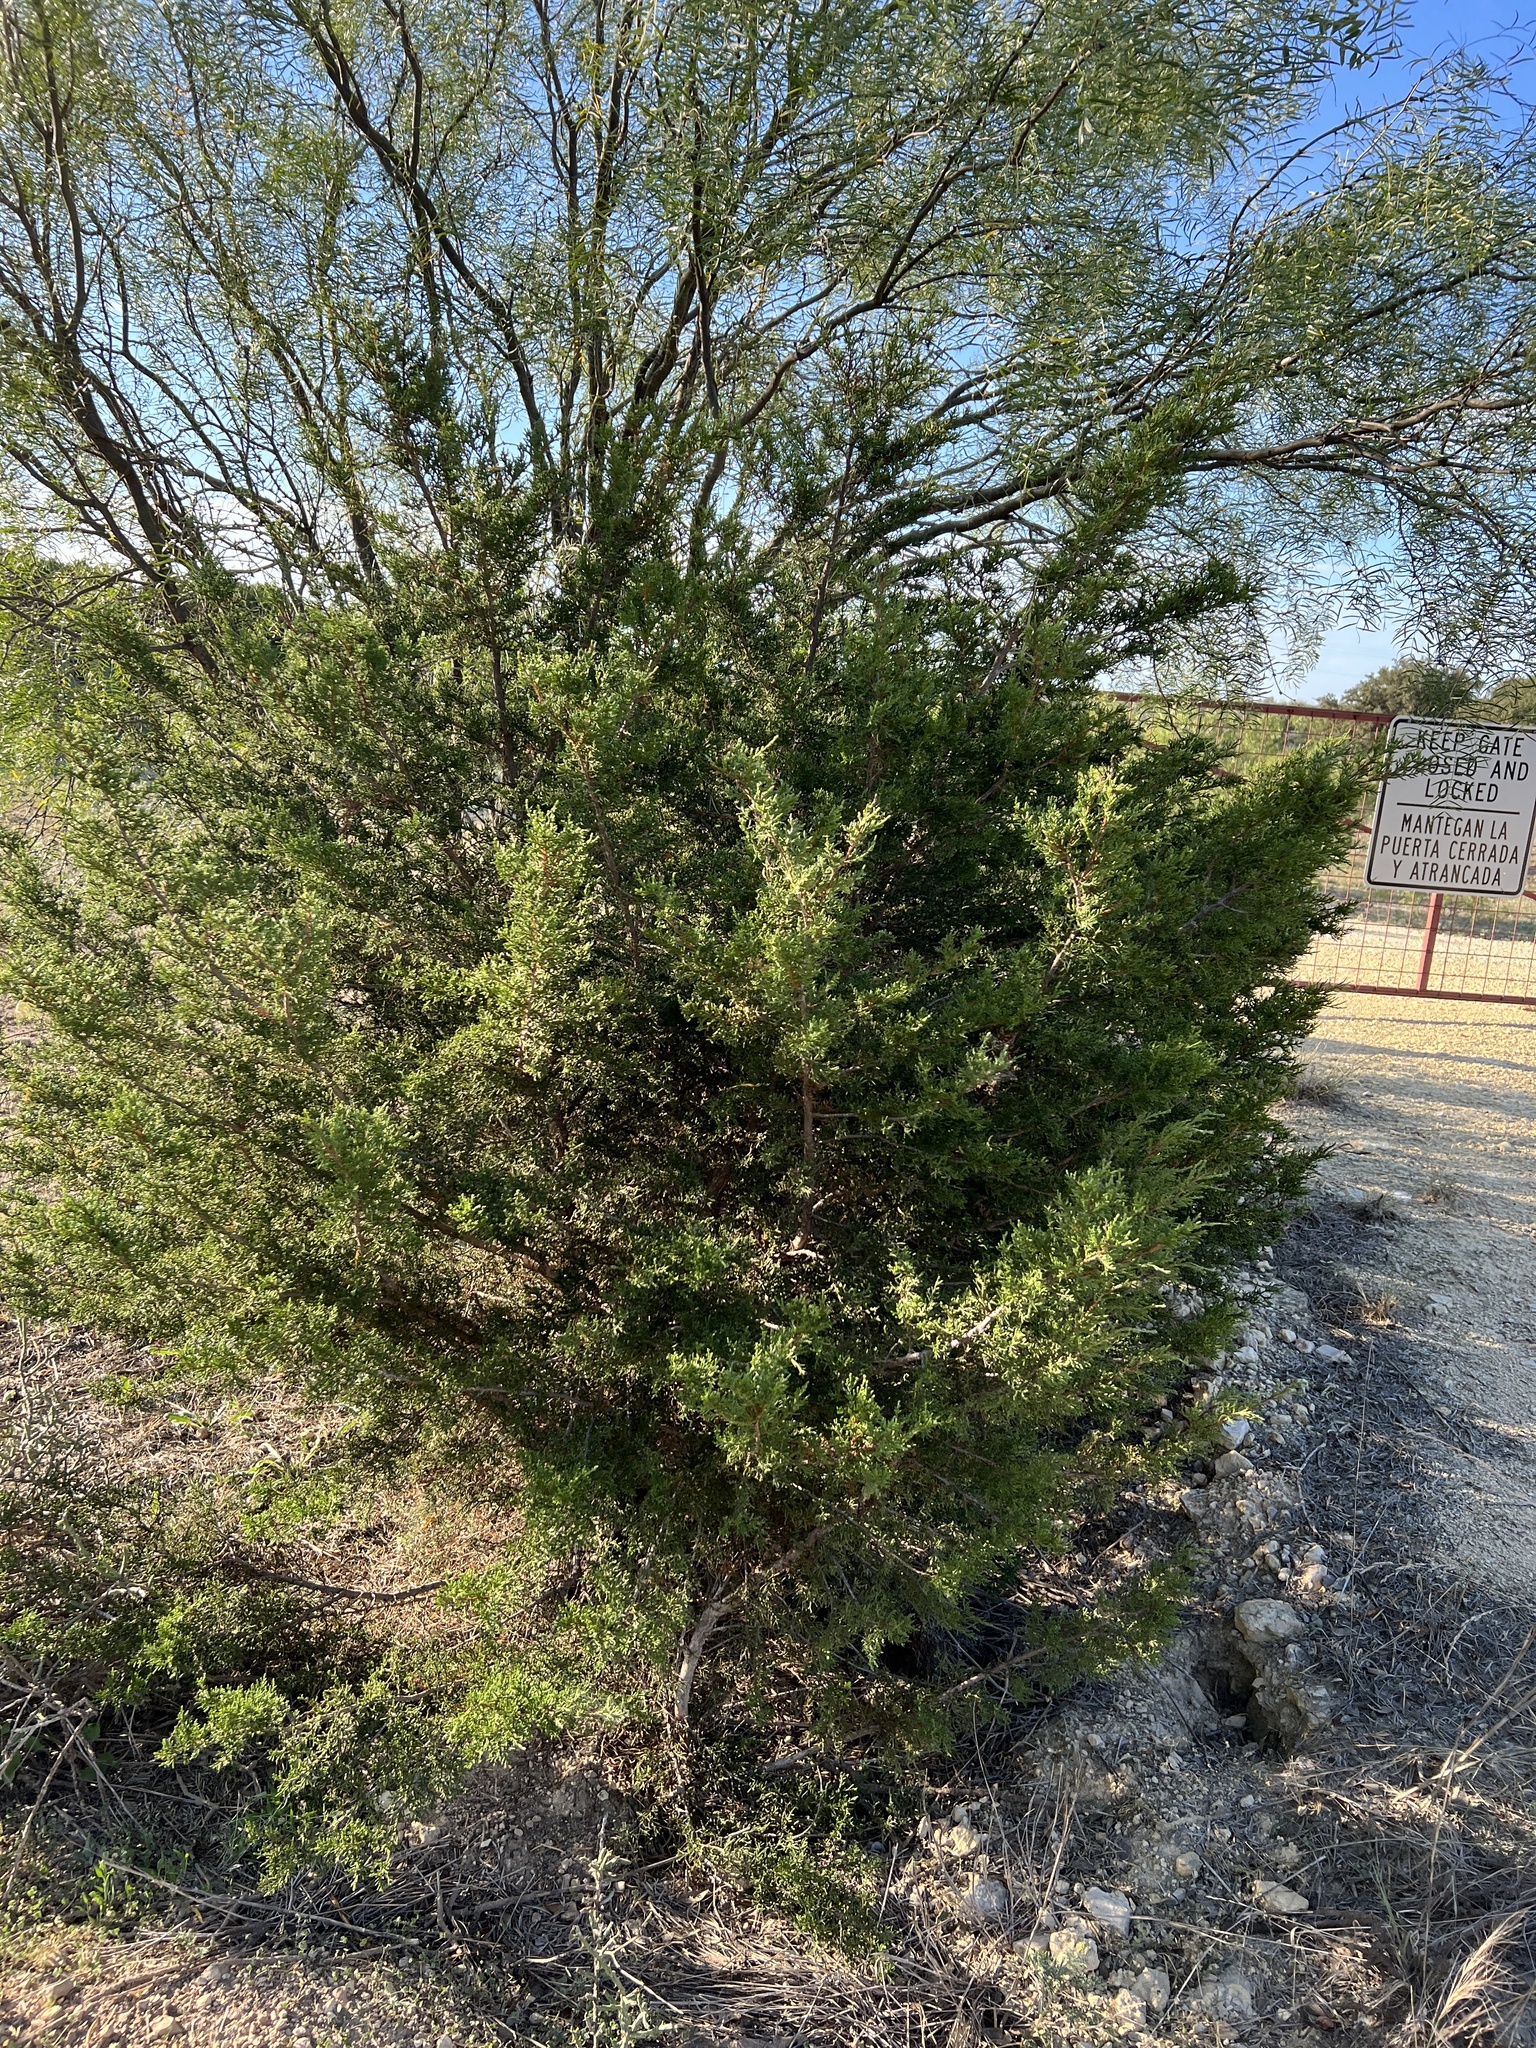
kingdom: Plantae
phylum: Tracheophyta
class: Pinopsida
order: Pinales
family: Cupressaceae
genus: Juniperus
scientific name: Juniperus pinchotii
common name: Pinchot juniper
